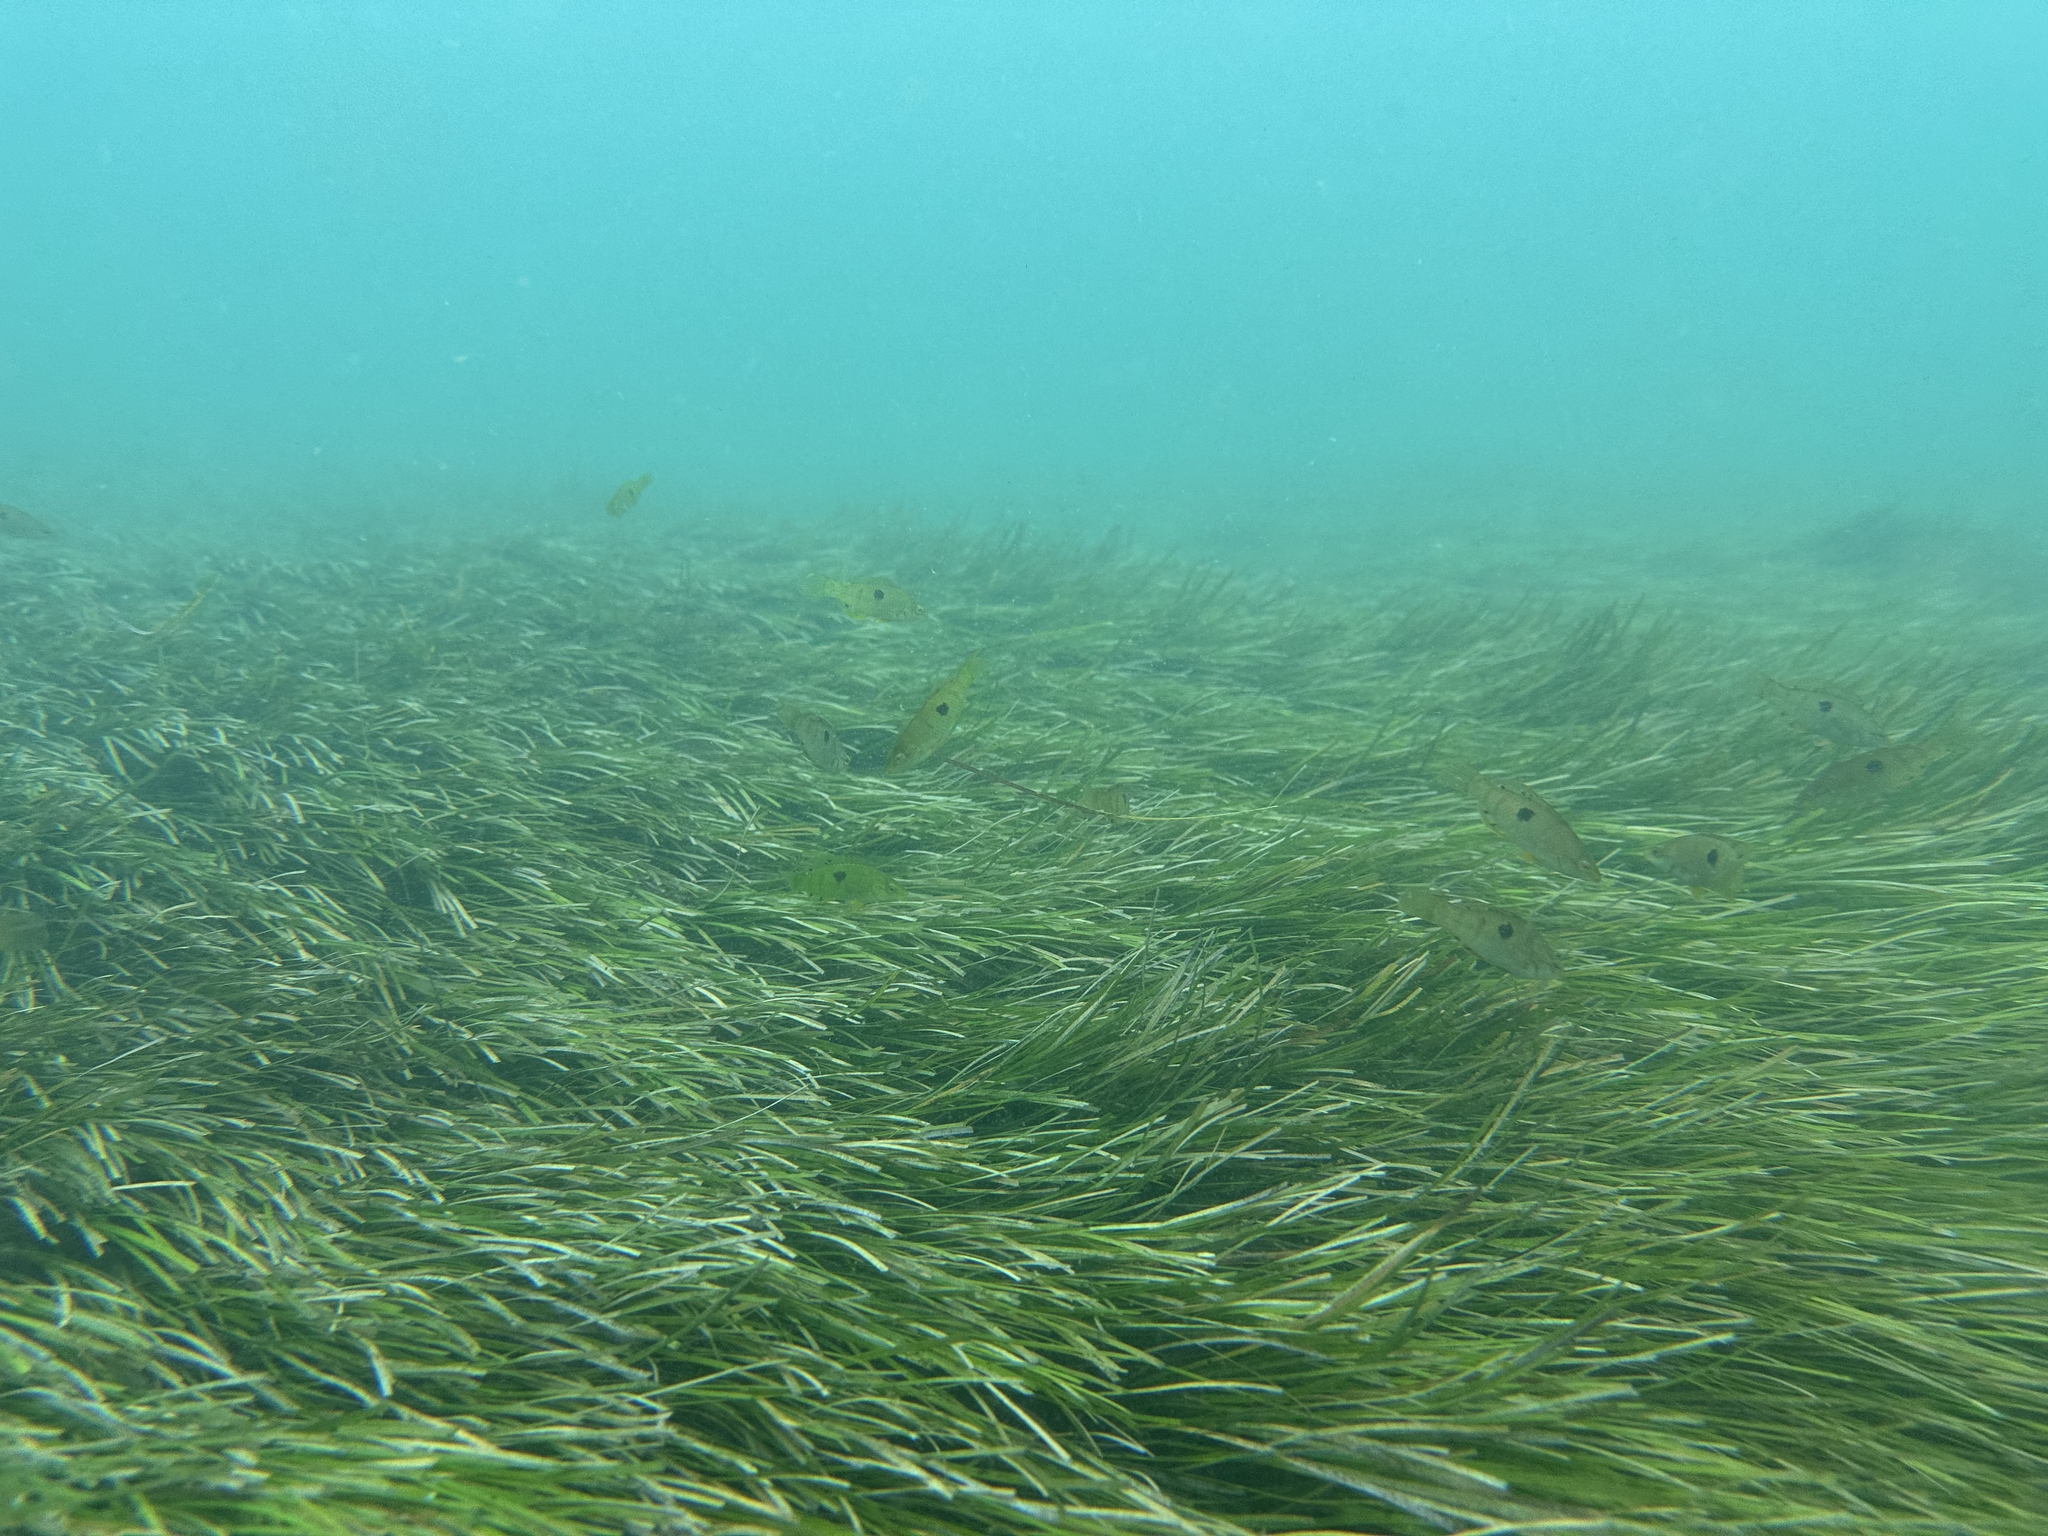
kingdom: Animalia
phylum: Chordata
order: Perciformes
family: Labridae
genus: Notolabrus
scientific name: Notolabrus celidotus
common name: Spotty
